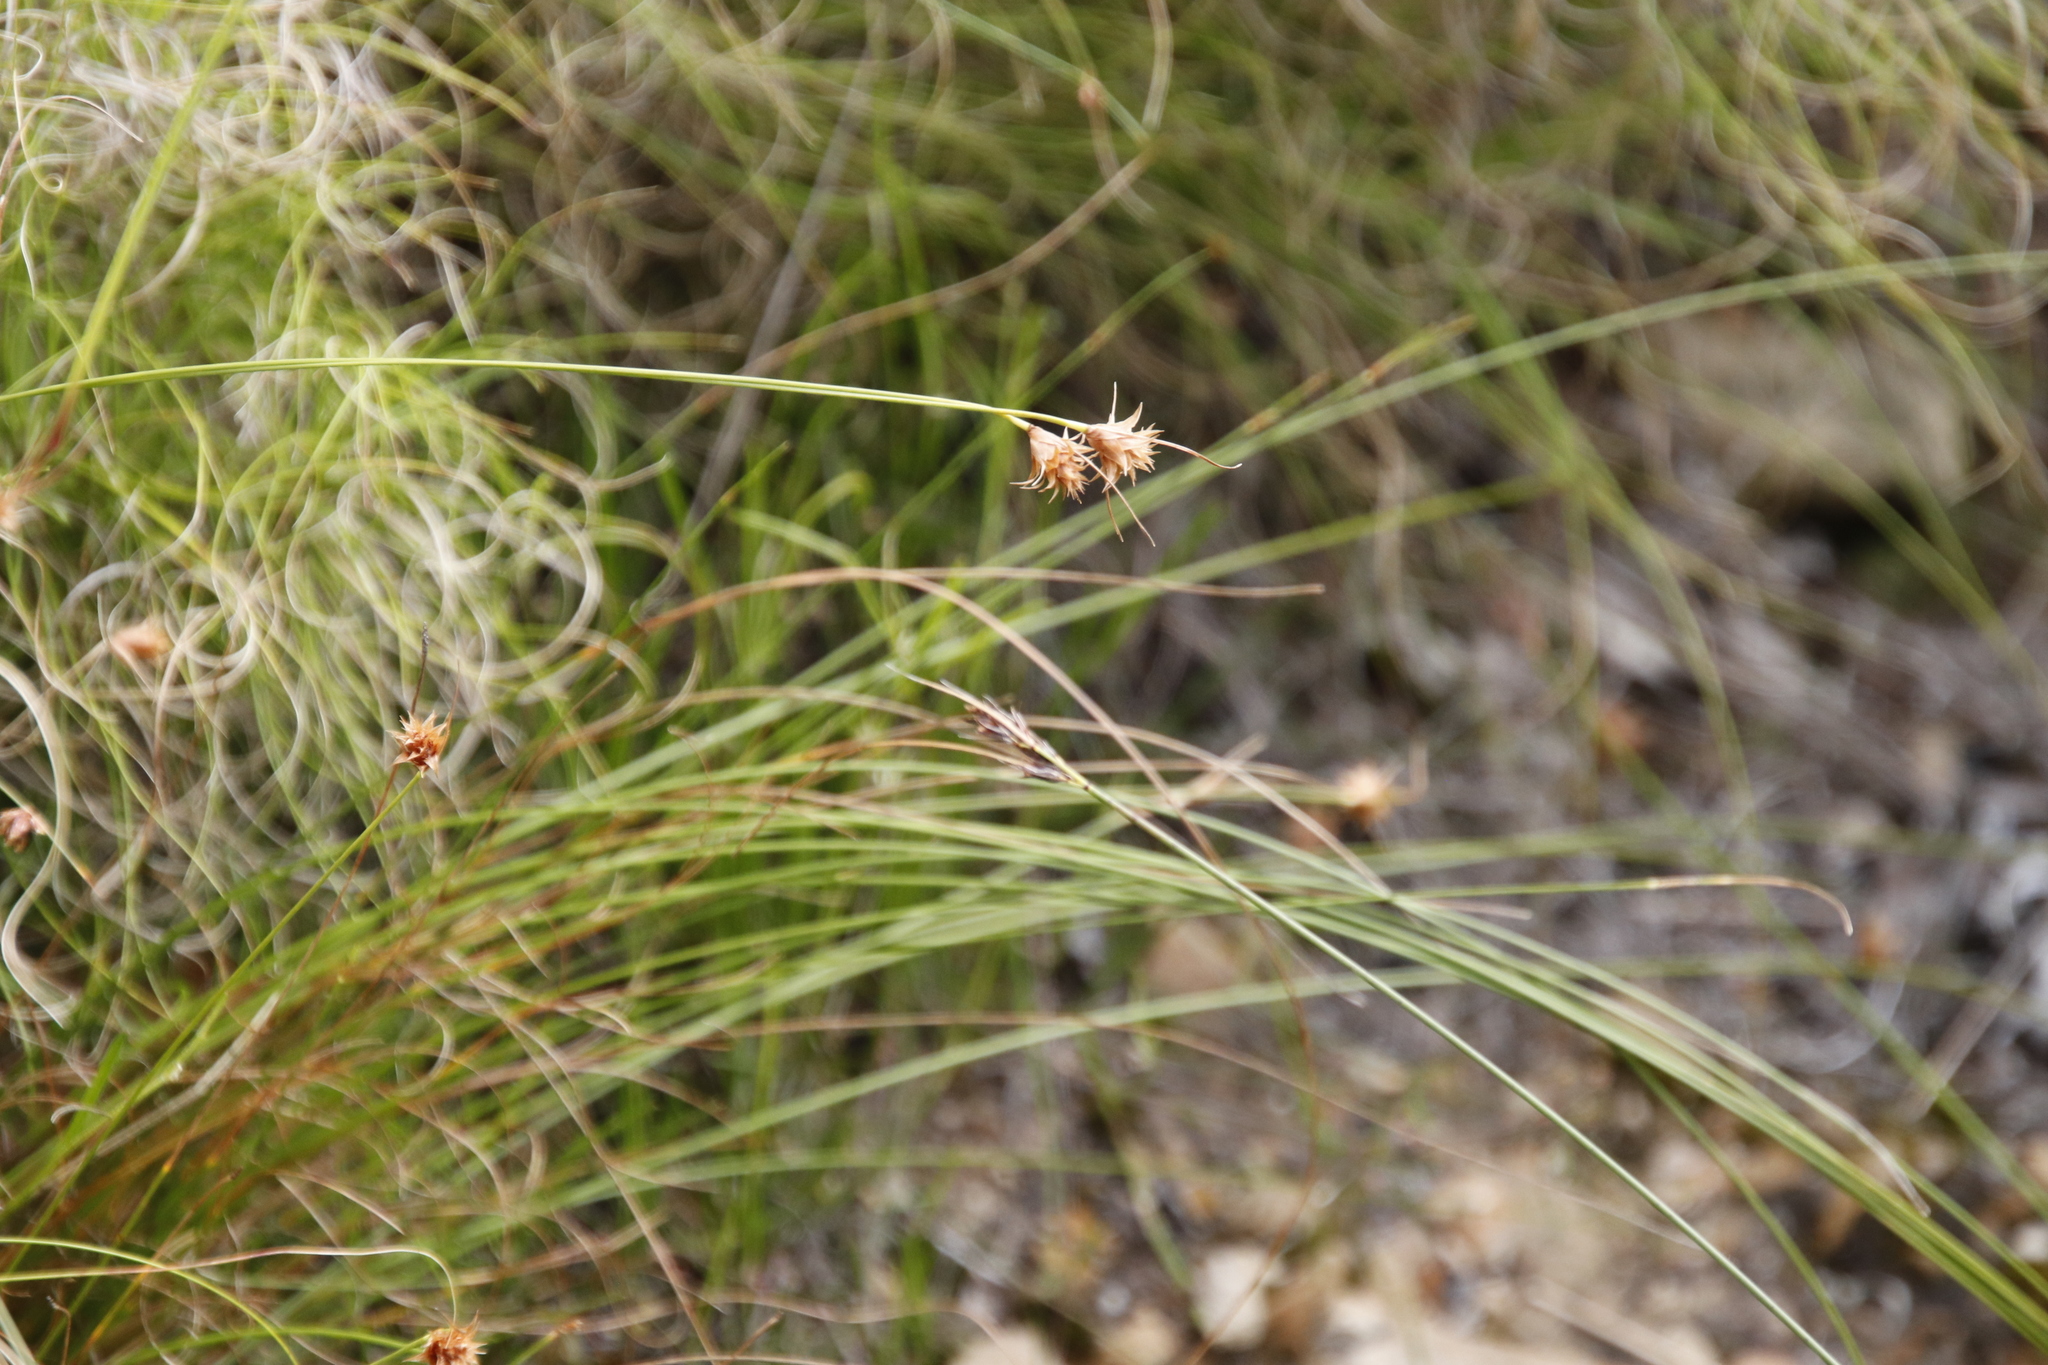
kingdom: Plantae
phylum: Tracheophyta
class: Liliopsida
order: Poales
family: Cyperaceae
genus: Ficinia
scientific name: Ficinia nigrescens
